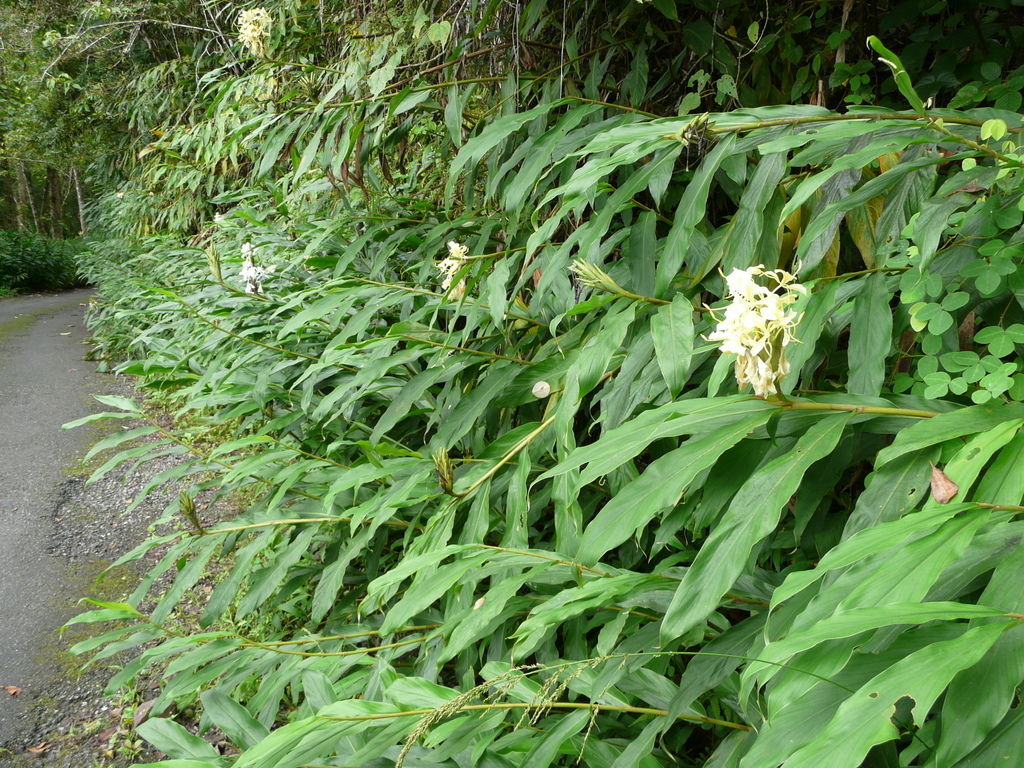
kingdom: Plantae
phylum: Tracheophyta
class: Liliopsida
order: Zingiberales
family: Zingiberaceae
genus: Hedychium
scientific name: Hedychium coronarium
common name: White garland-lily
